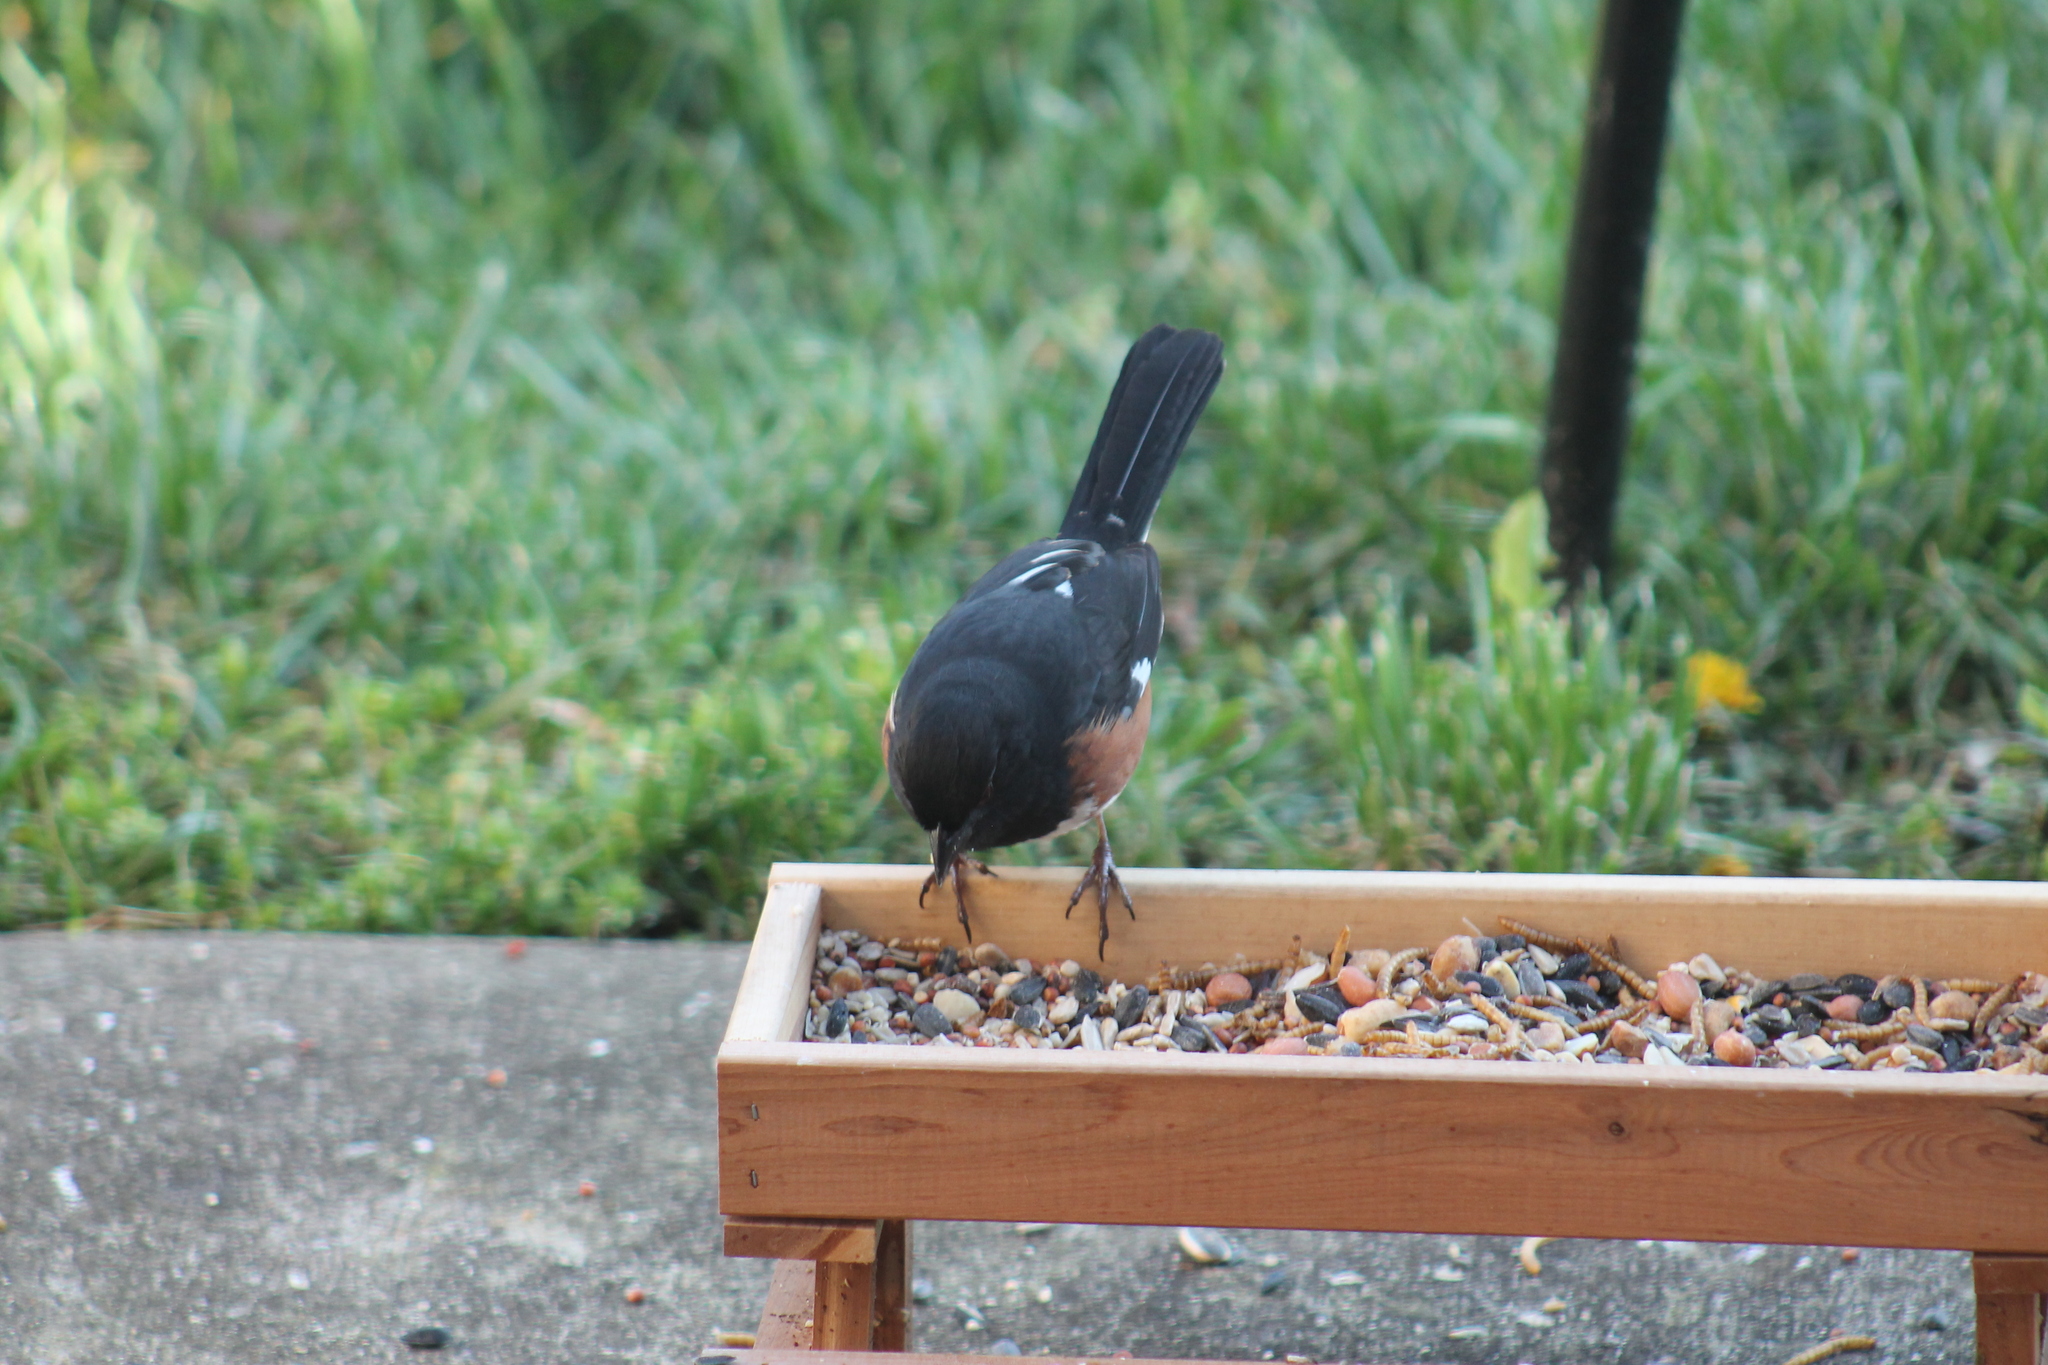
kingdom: Animalia
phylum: Chordata
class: Aves
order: Passeriformes
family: Passerellidae
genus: Pipilo
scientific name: Pipilo erythrophthalmus
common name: Eastern towhee
